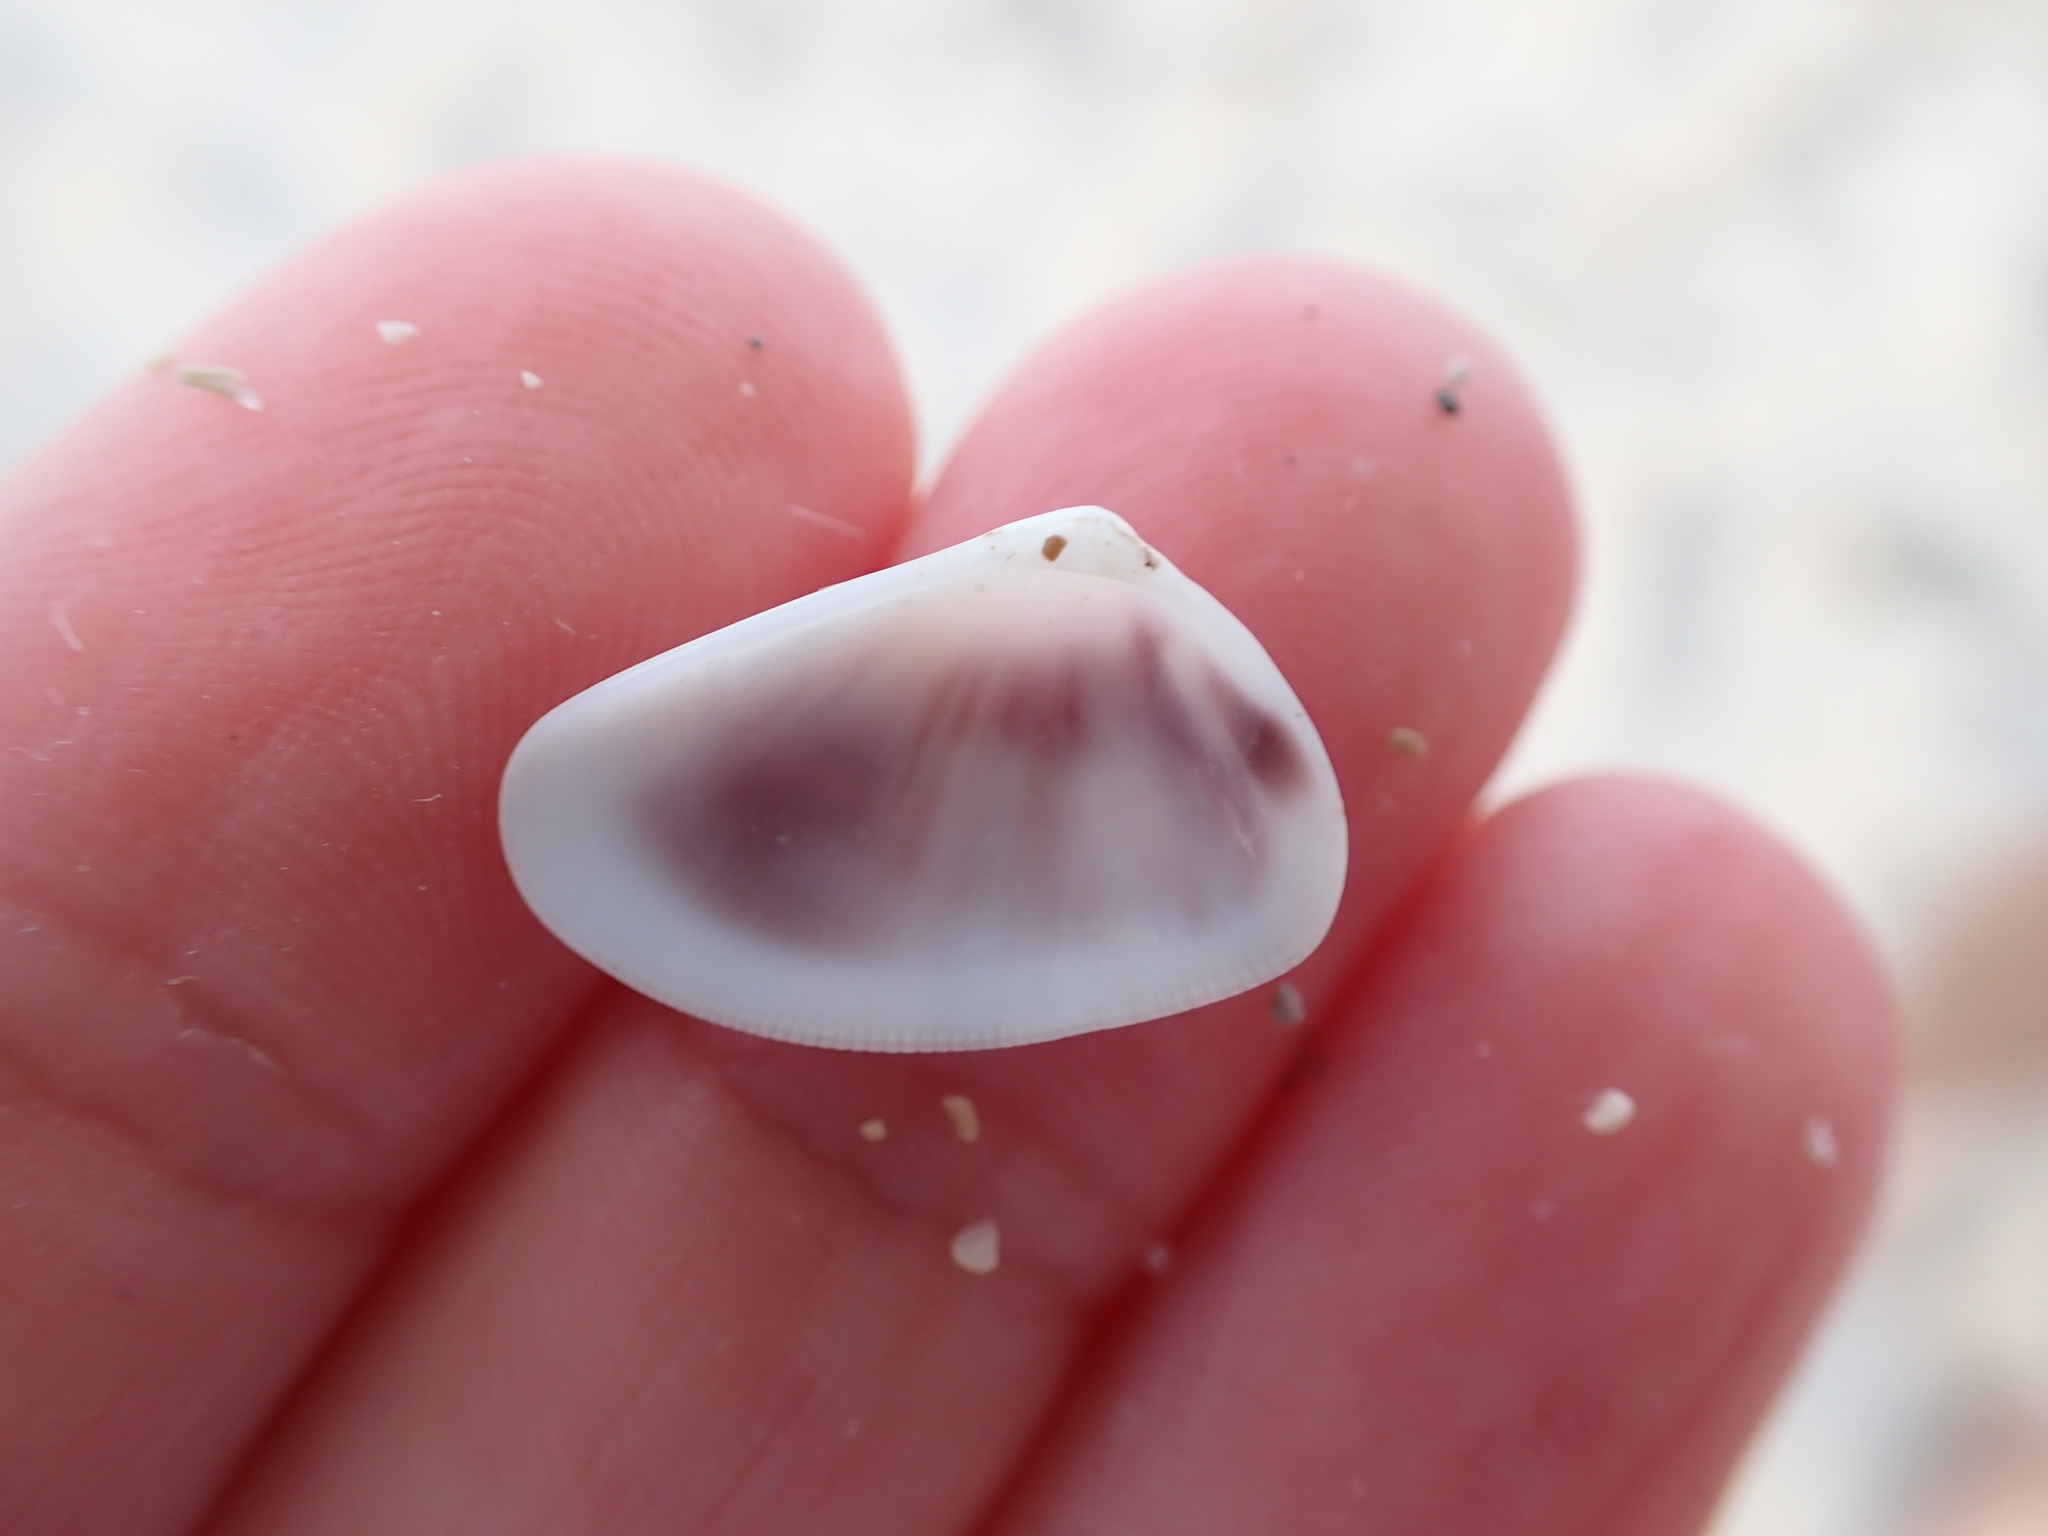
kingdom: Animalia
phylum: Mollusca
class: Bivalvia
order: Cardiida
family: Donacidae
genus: Donax
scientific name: Donax trunculus
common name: Truncate donax
